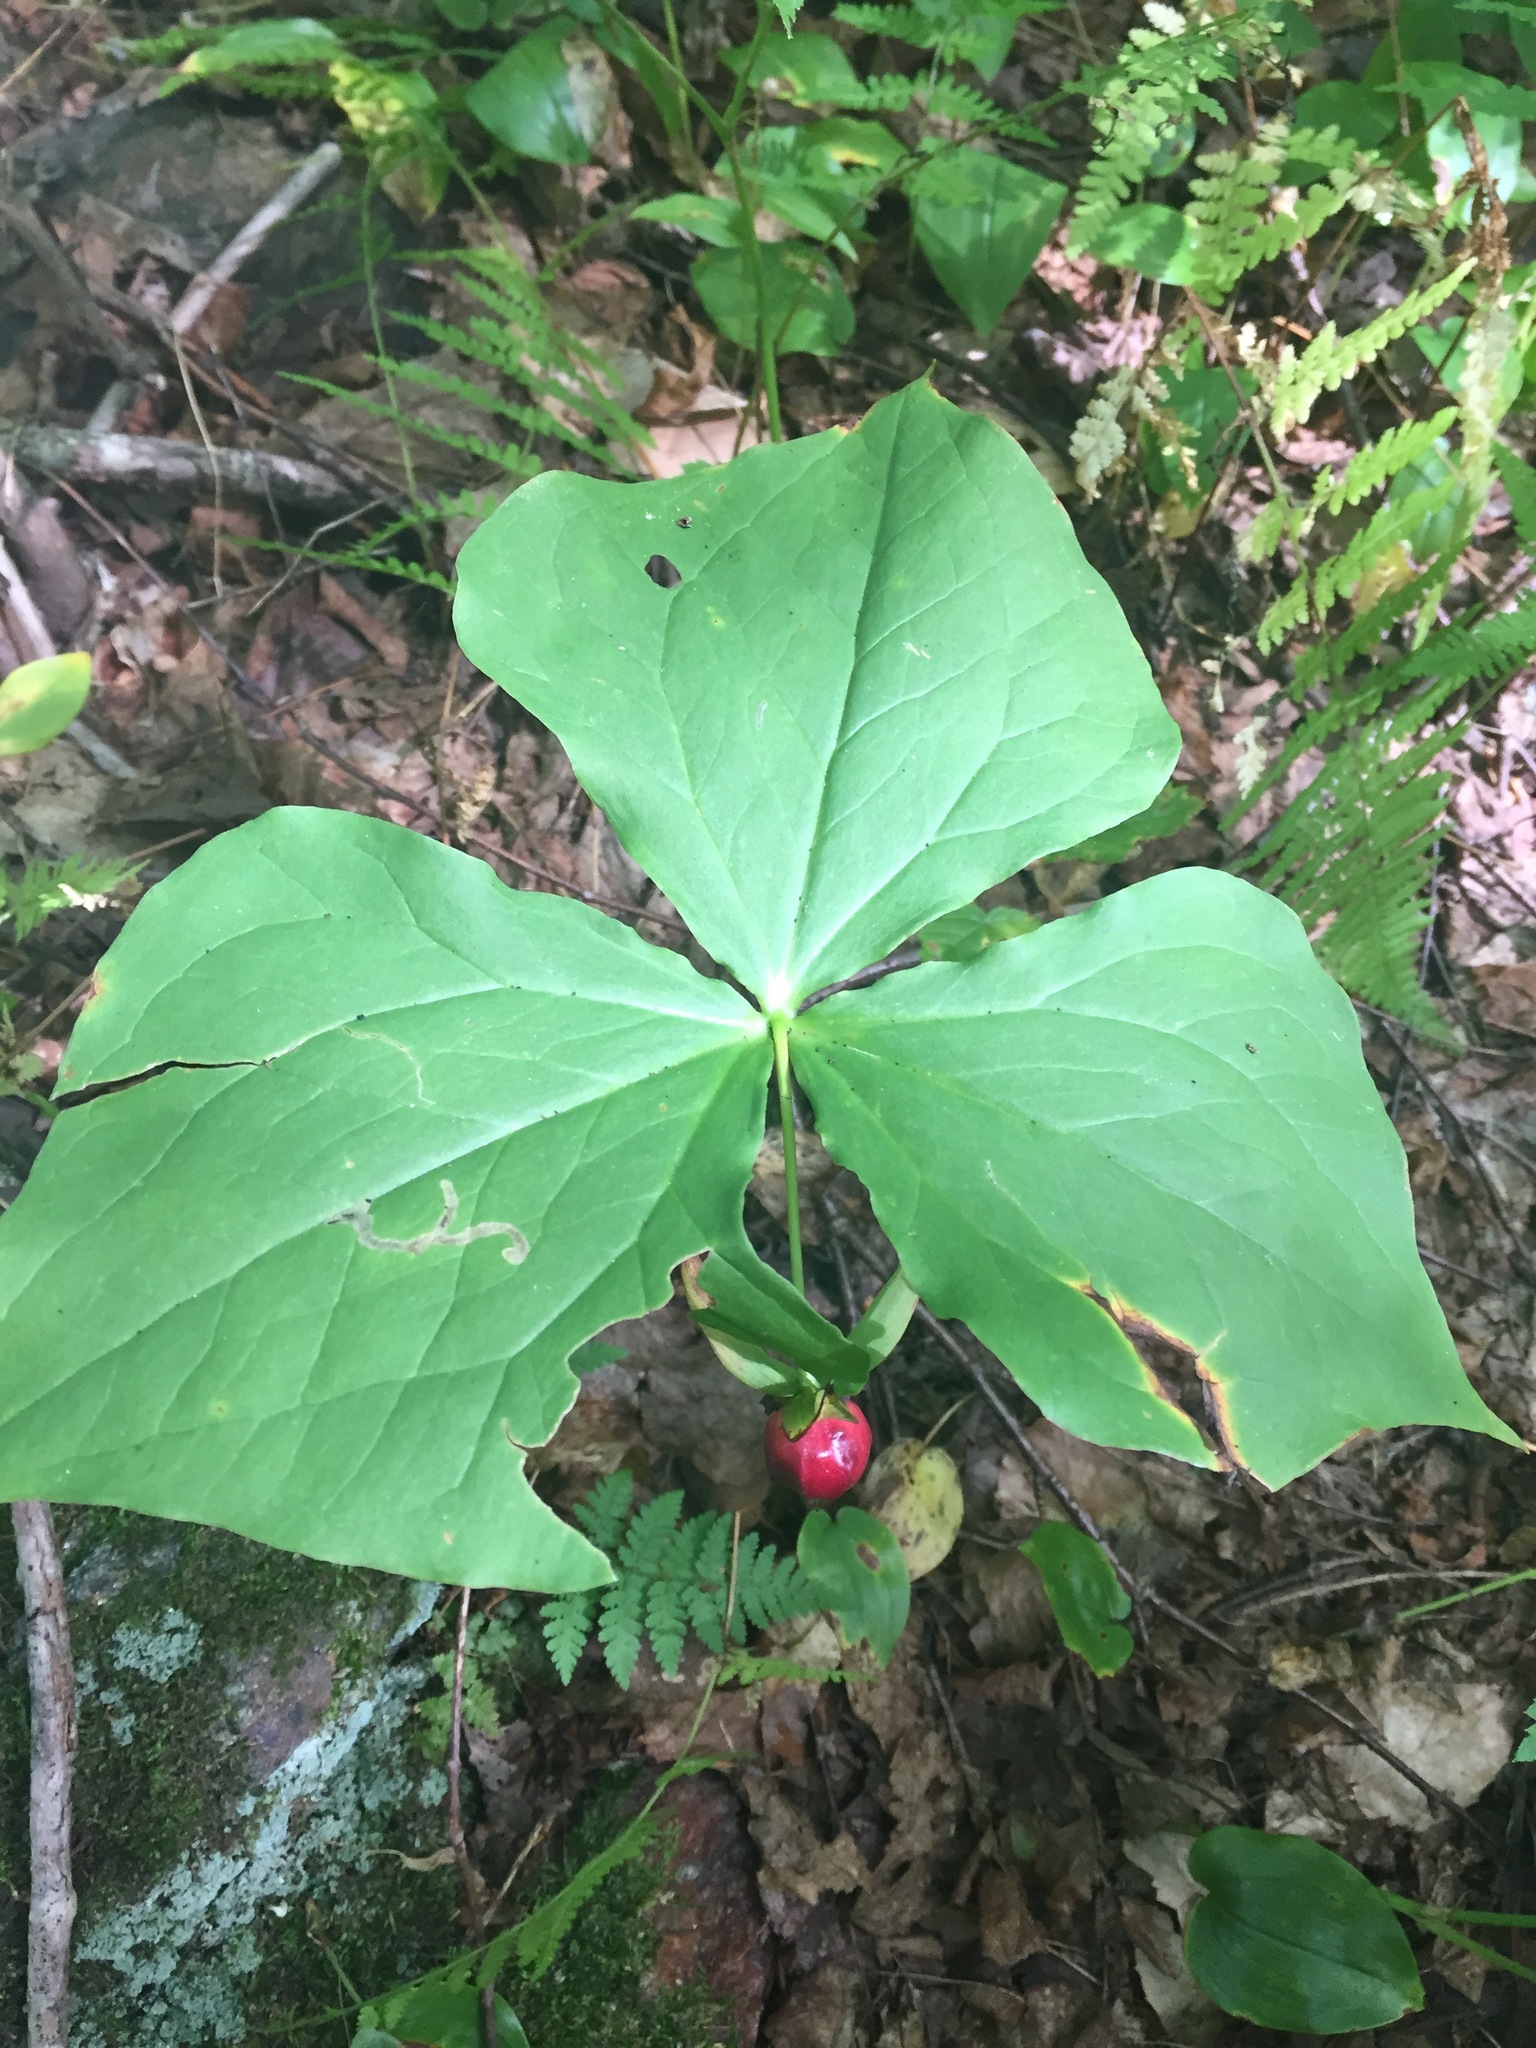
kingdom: Plantae
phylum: Tracheophyta
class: Liliopsida
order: Liliales
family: Melanthiaceae
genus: Trillium
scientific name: Trillium erectum
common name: Purple trillium
